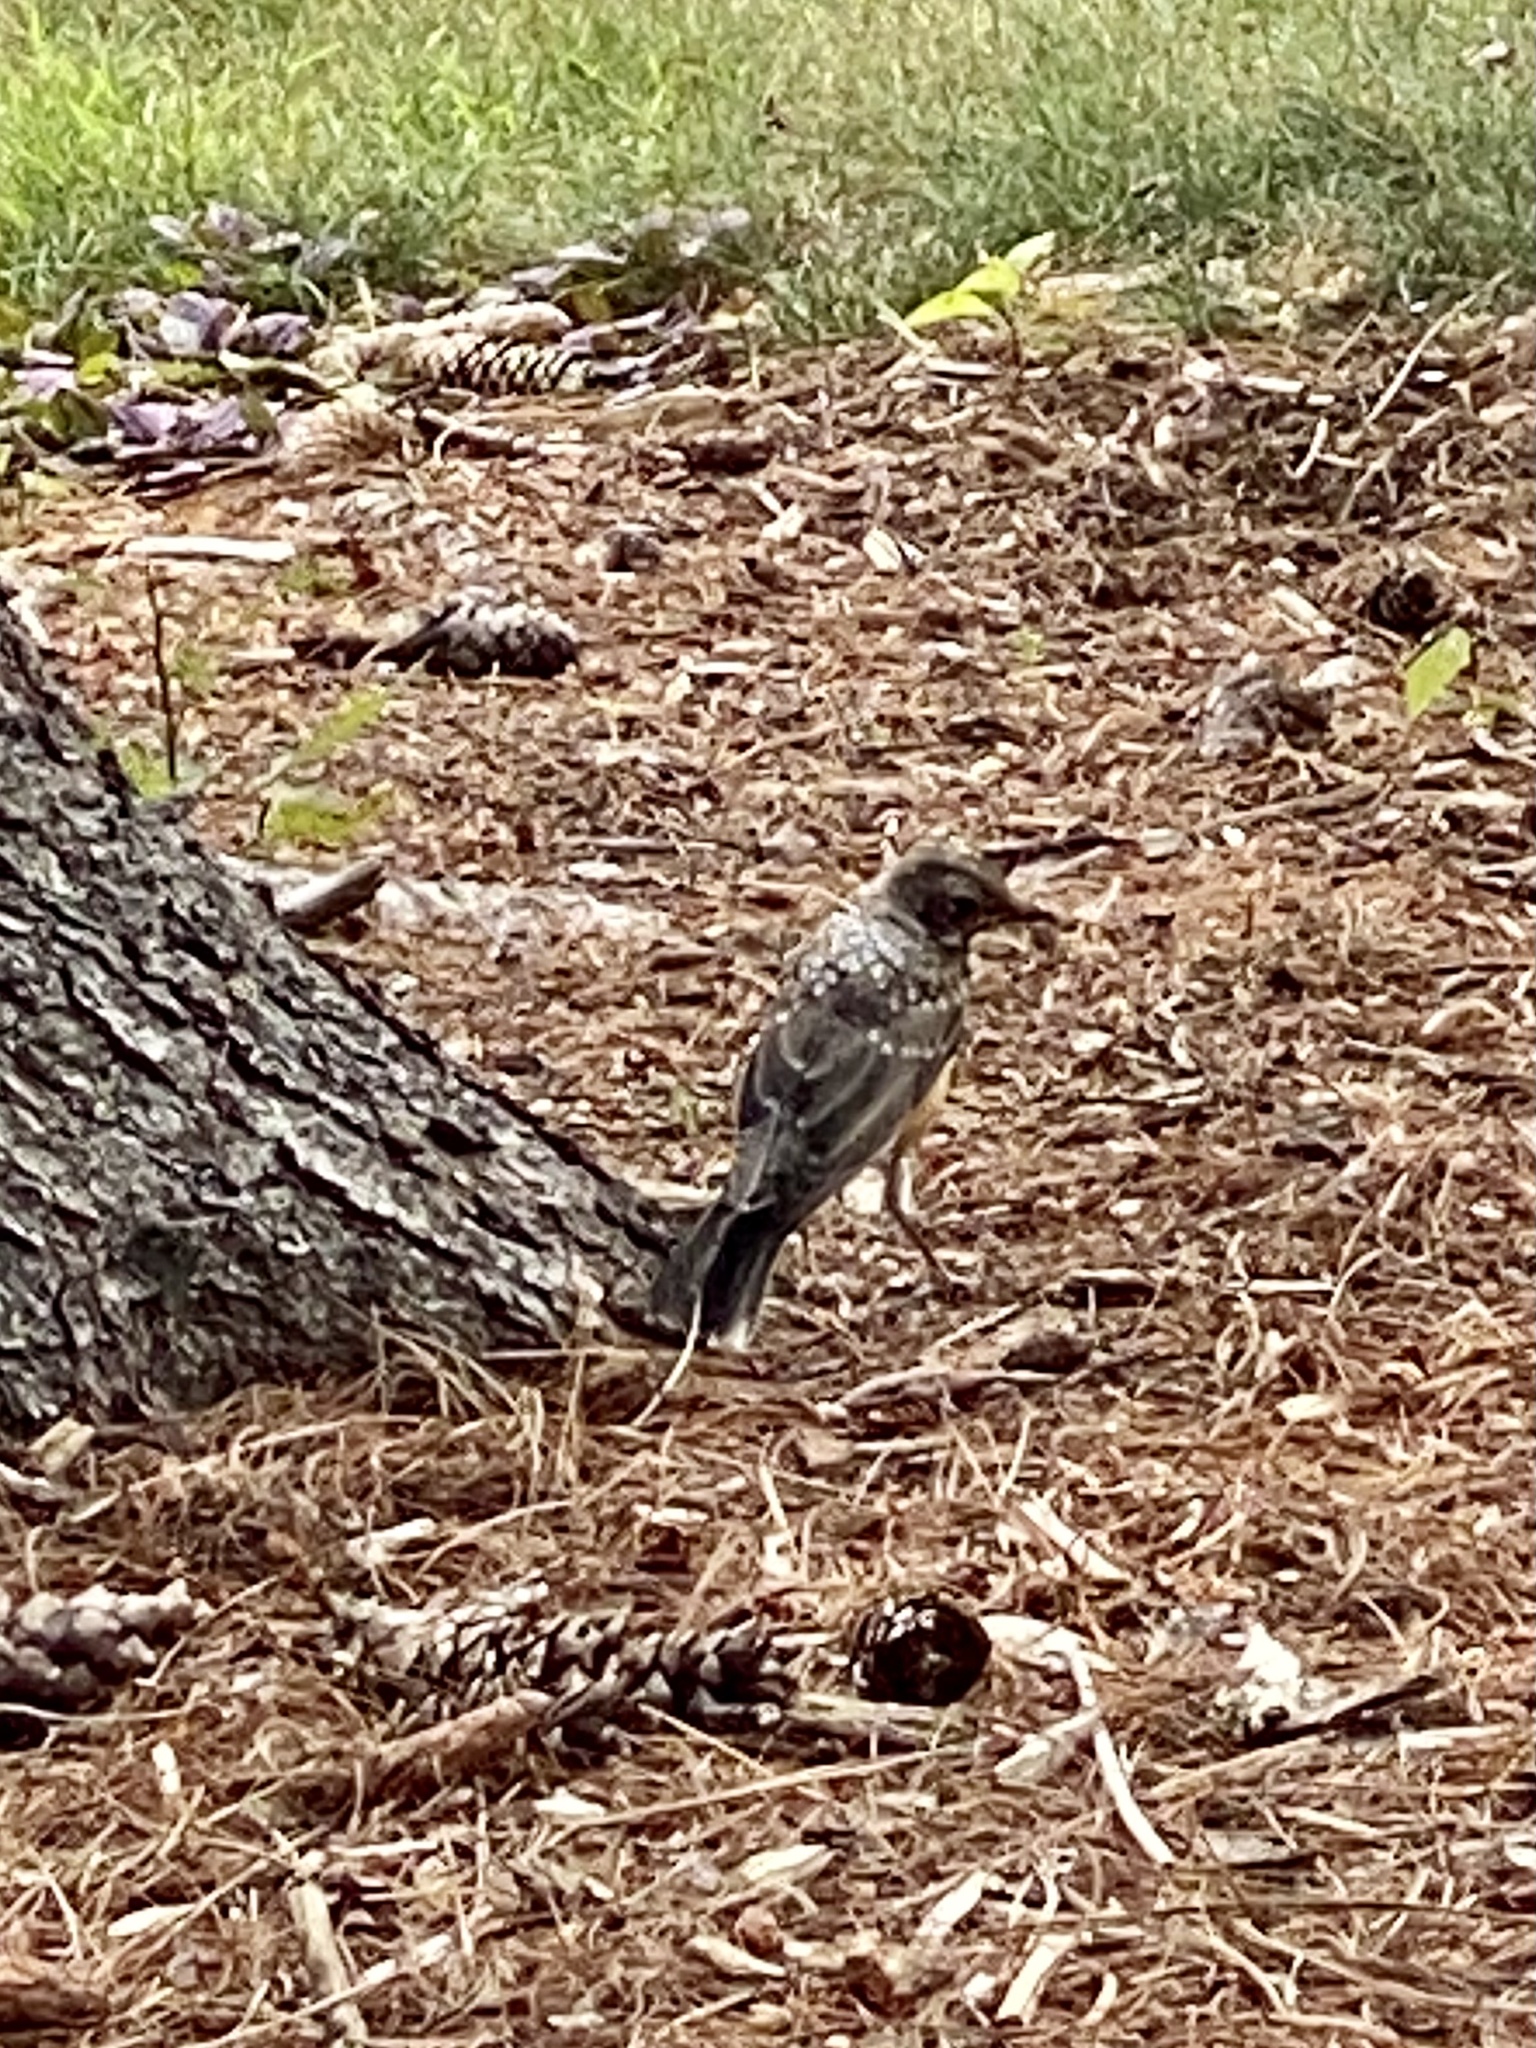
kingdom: Animalia
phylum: Chordata
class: Aves
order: Passeriformes
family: Turdidae
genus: Turdus
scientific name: Turdus migratorius
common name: American robin
